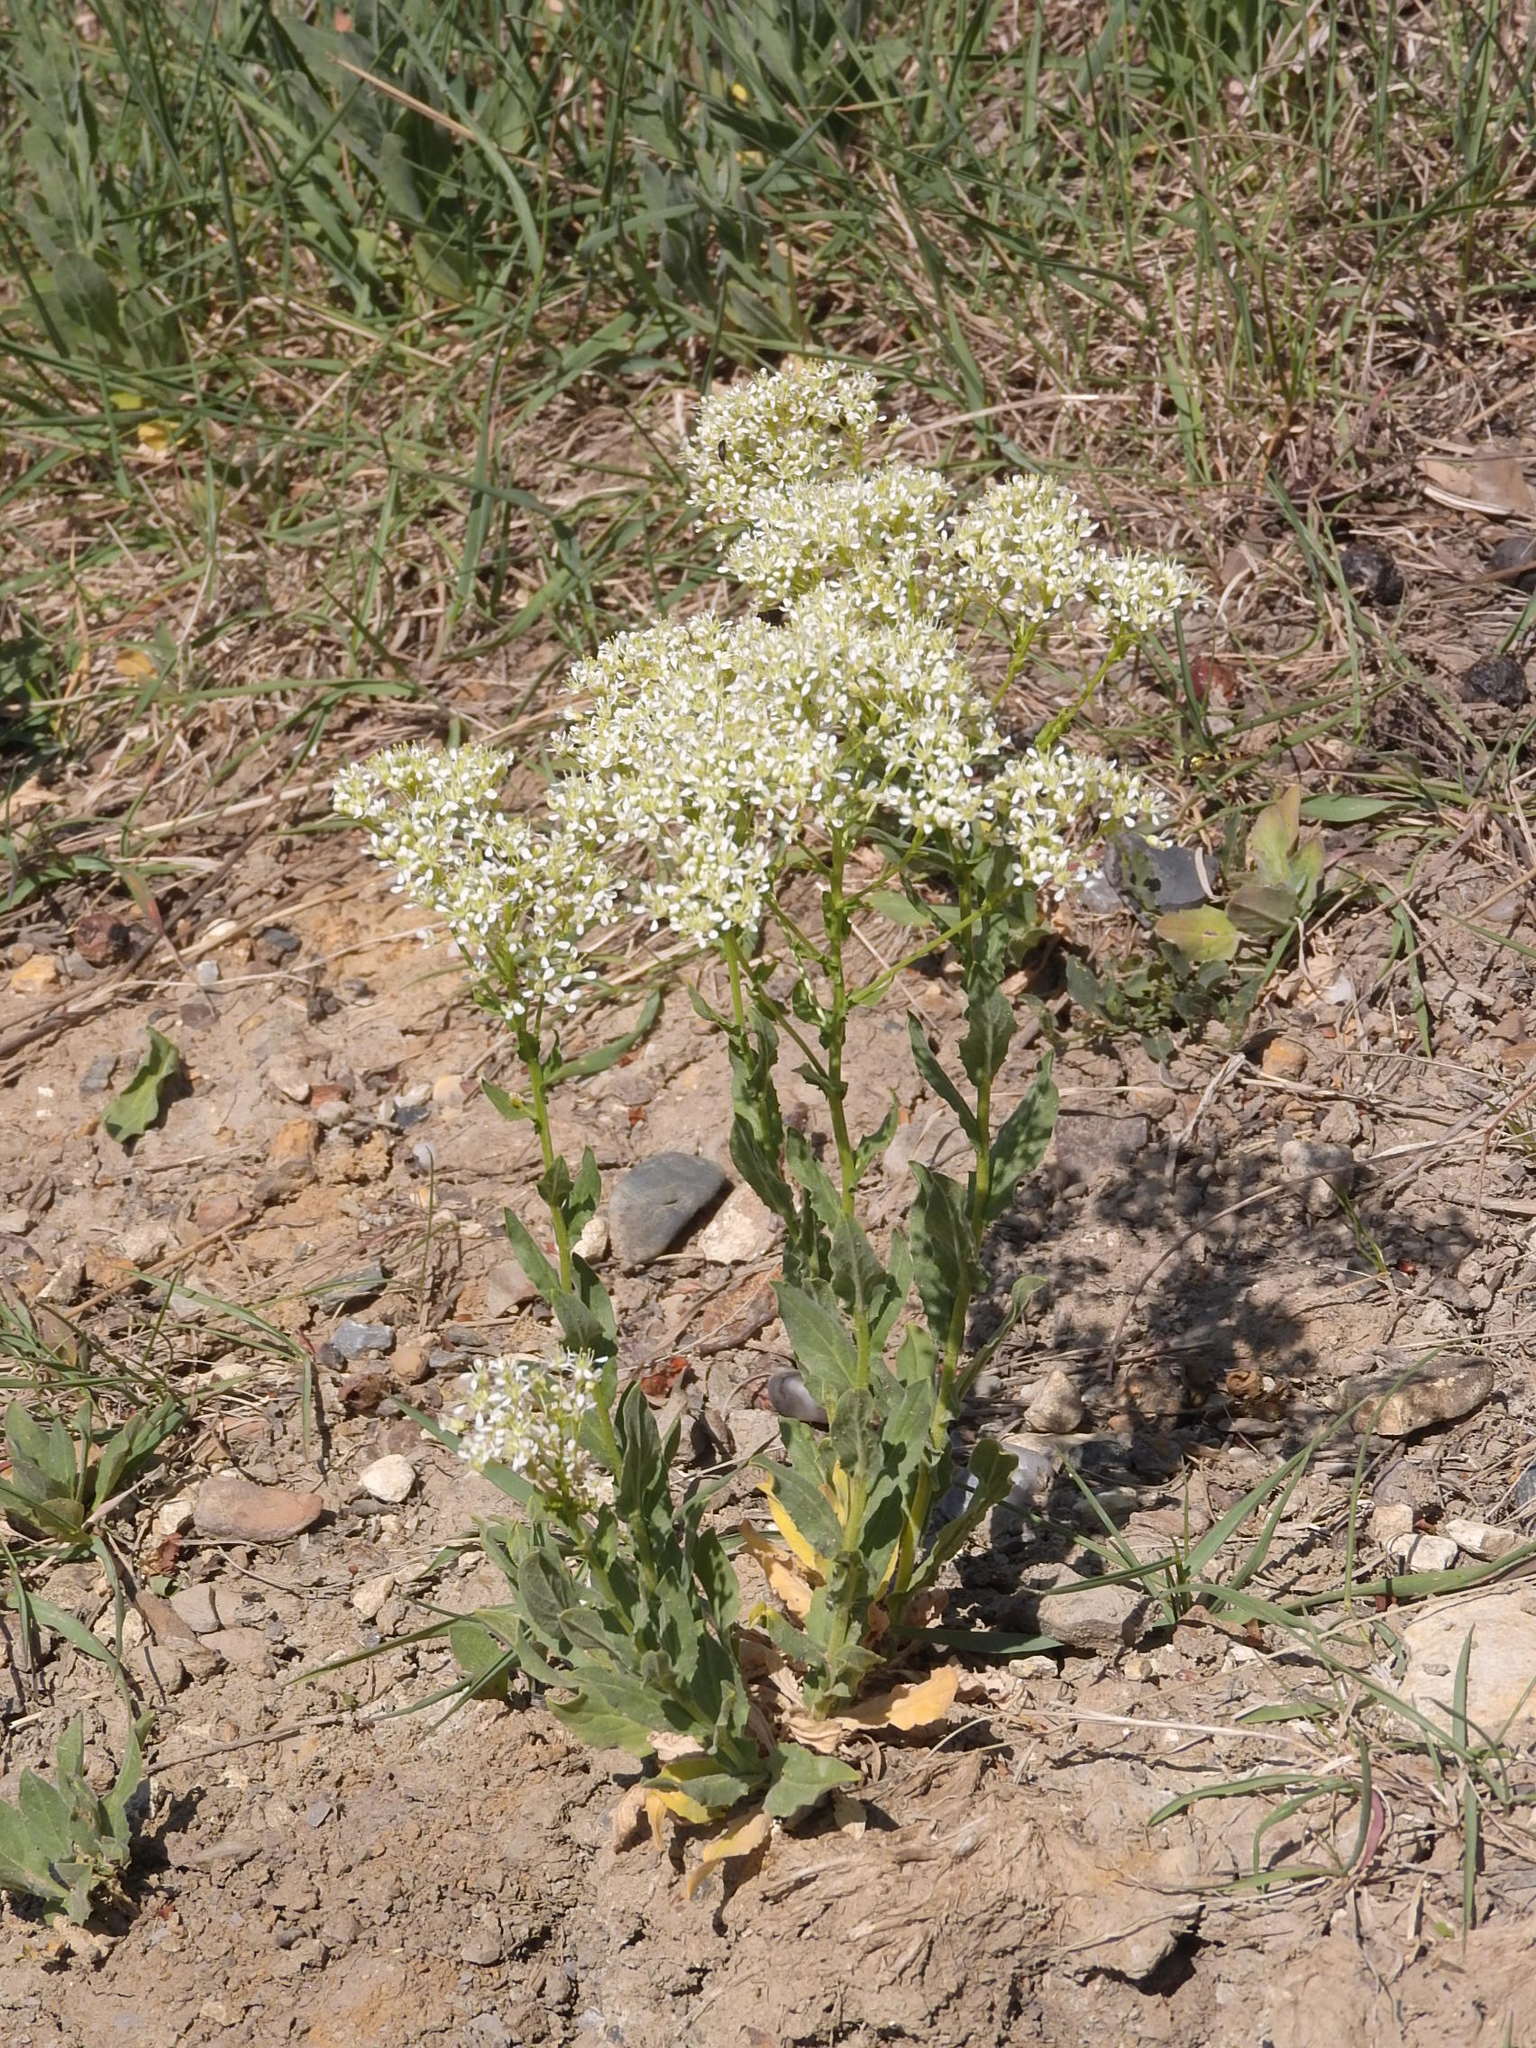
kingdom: Plantae
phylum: Tracheophyta
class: Magnoliopsida
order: Brassicales
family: Brassicaceae
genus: Lepidium
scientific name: Lepidium draba
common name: Hoary cress
